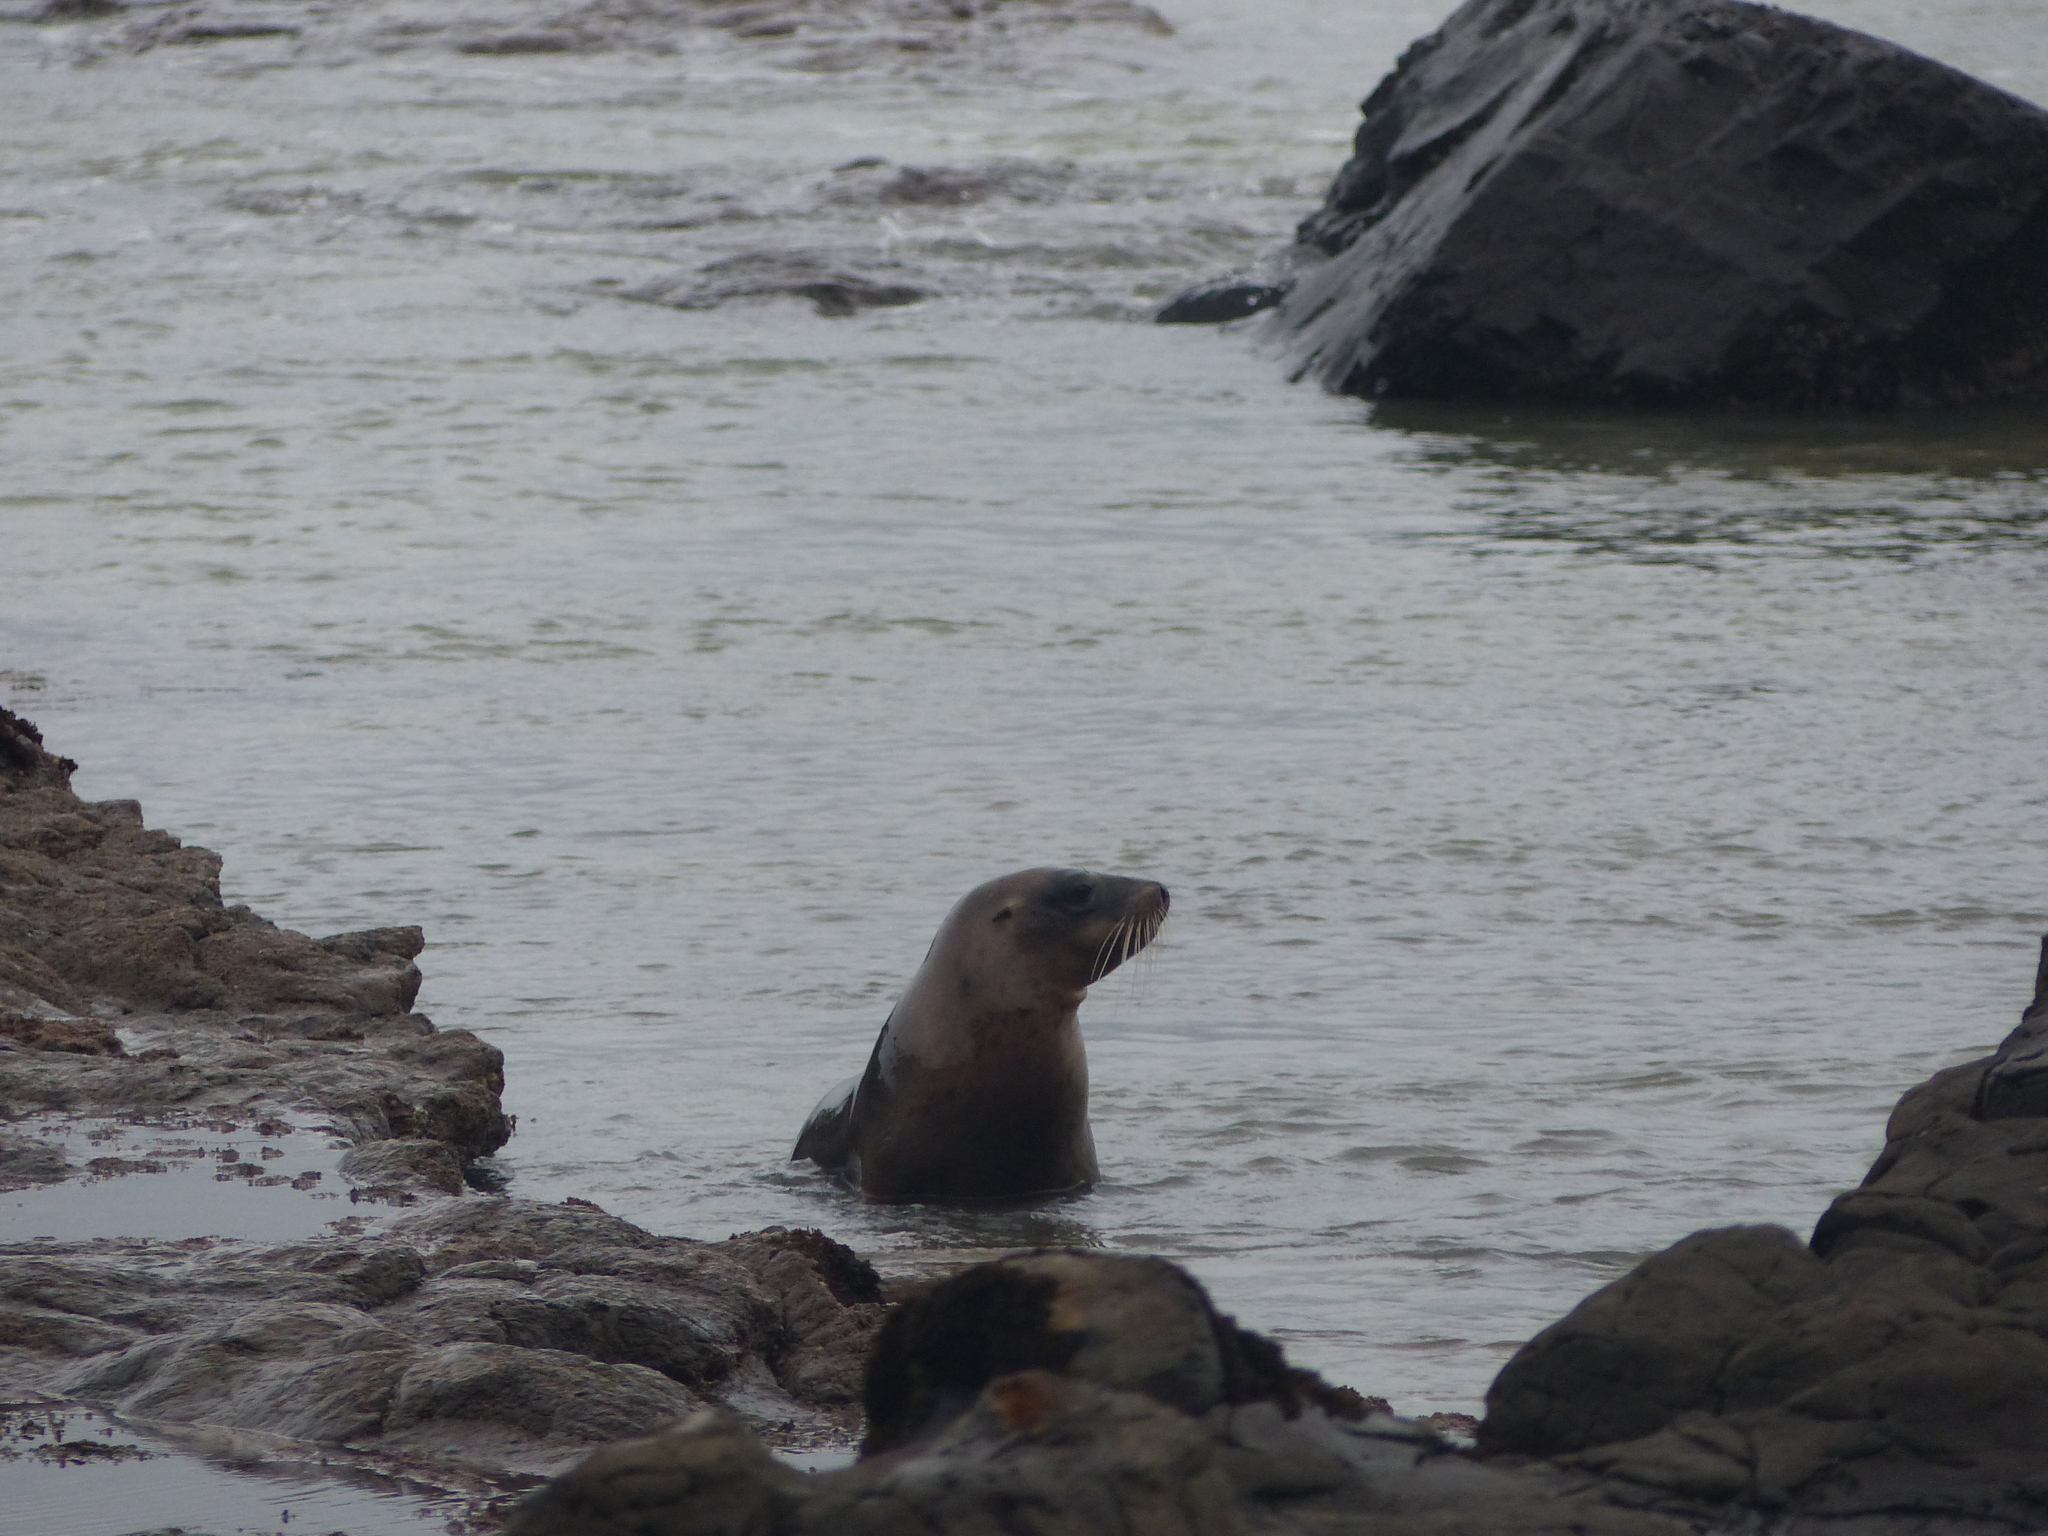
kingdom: Animalia
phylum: Chordata
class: Mammalia
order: Carnivora
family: Otariidae
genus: Phocarctos
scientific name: Phocarctos hookeri
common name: New zealand sea lion
